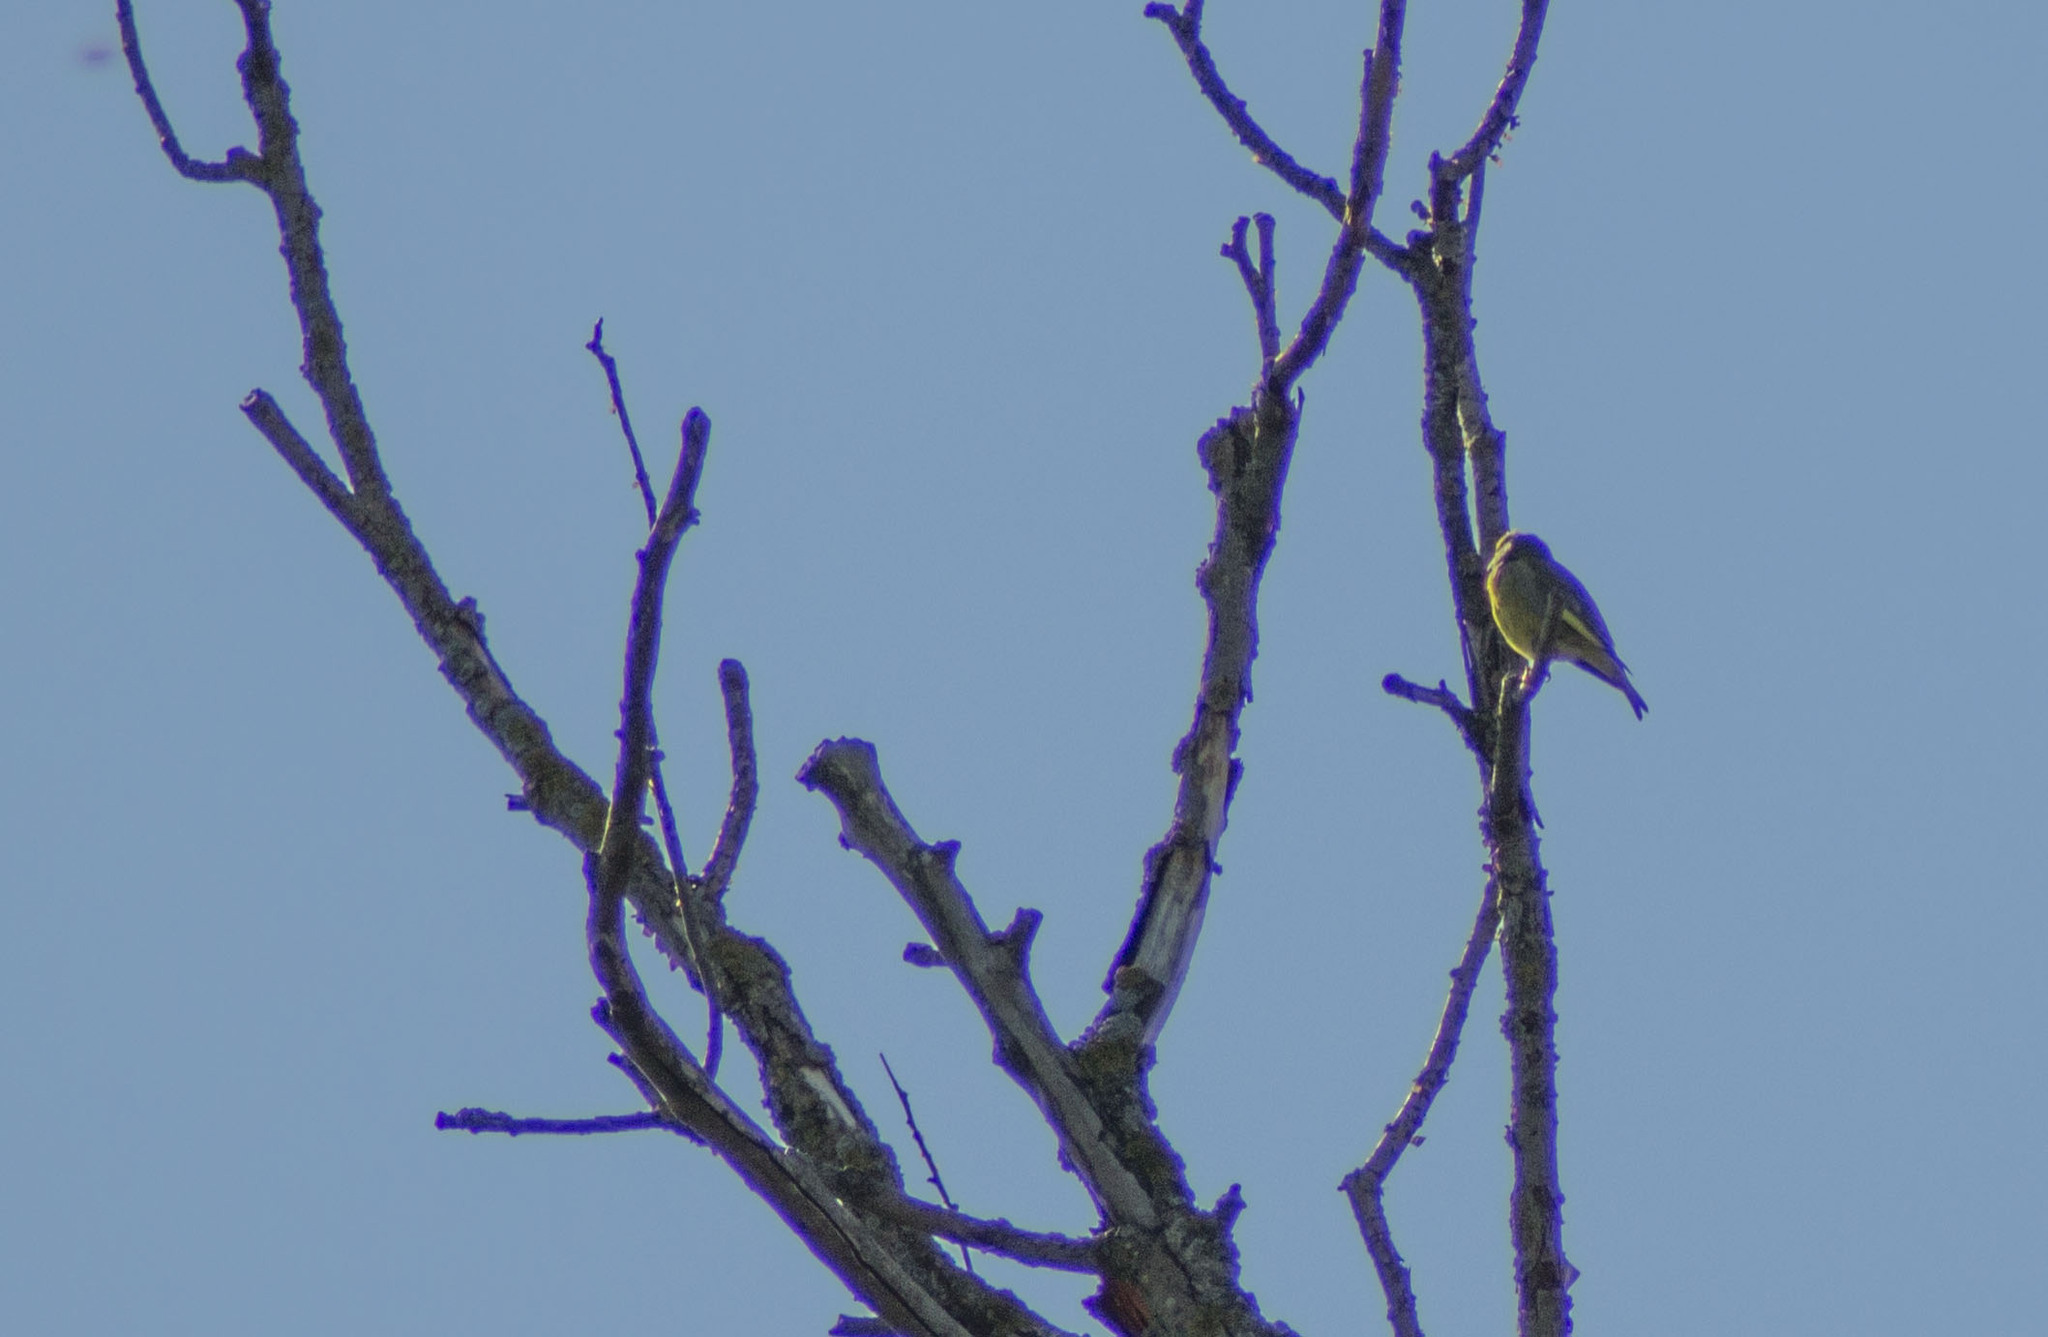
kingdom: Plantae
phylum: Tracheophyta
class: Liliopsida
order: Poales
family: Poaceae
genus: Chloris
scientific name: Chloris chloris
